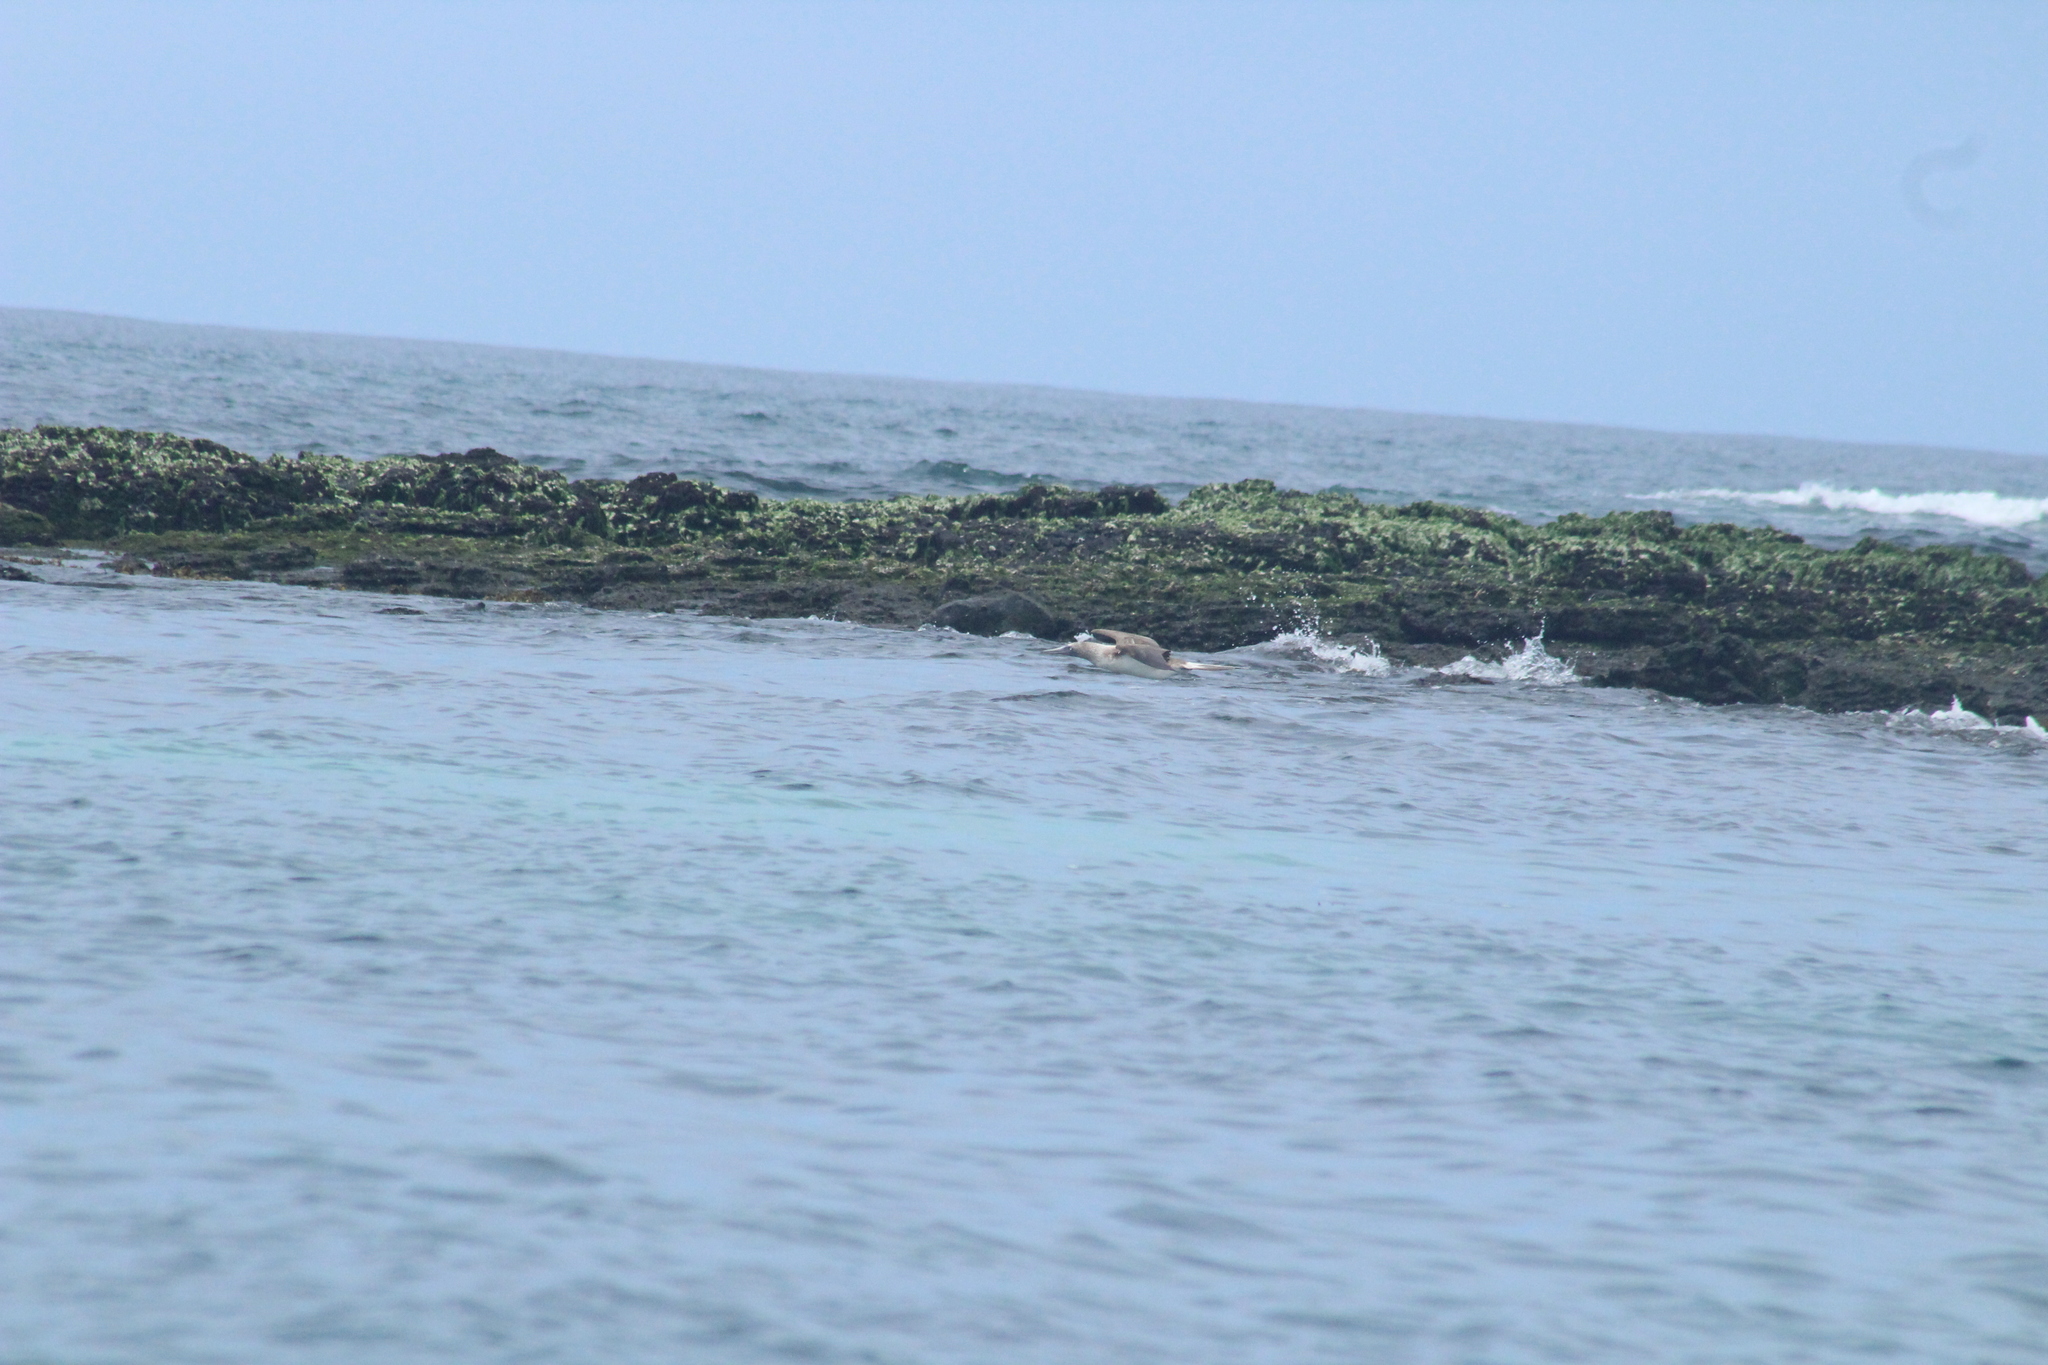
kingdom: Animalia
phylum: Chordata
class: Aves
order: Suliformes
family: Sulidae
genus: Sula
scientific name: Sula nebouxii
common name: Blue-footed booby
